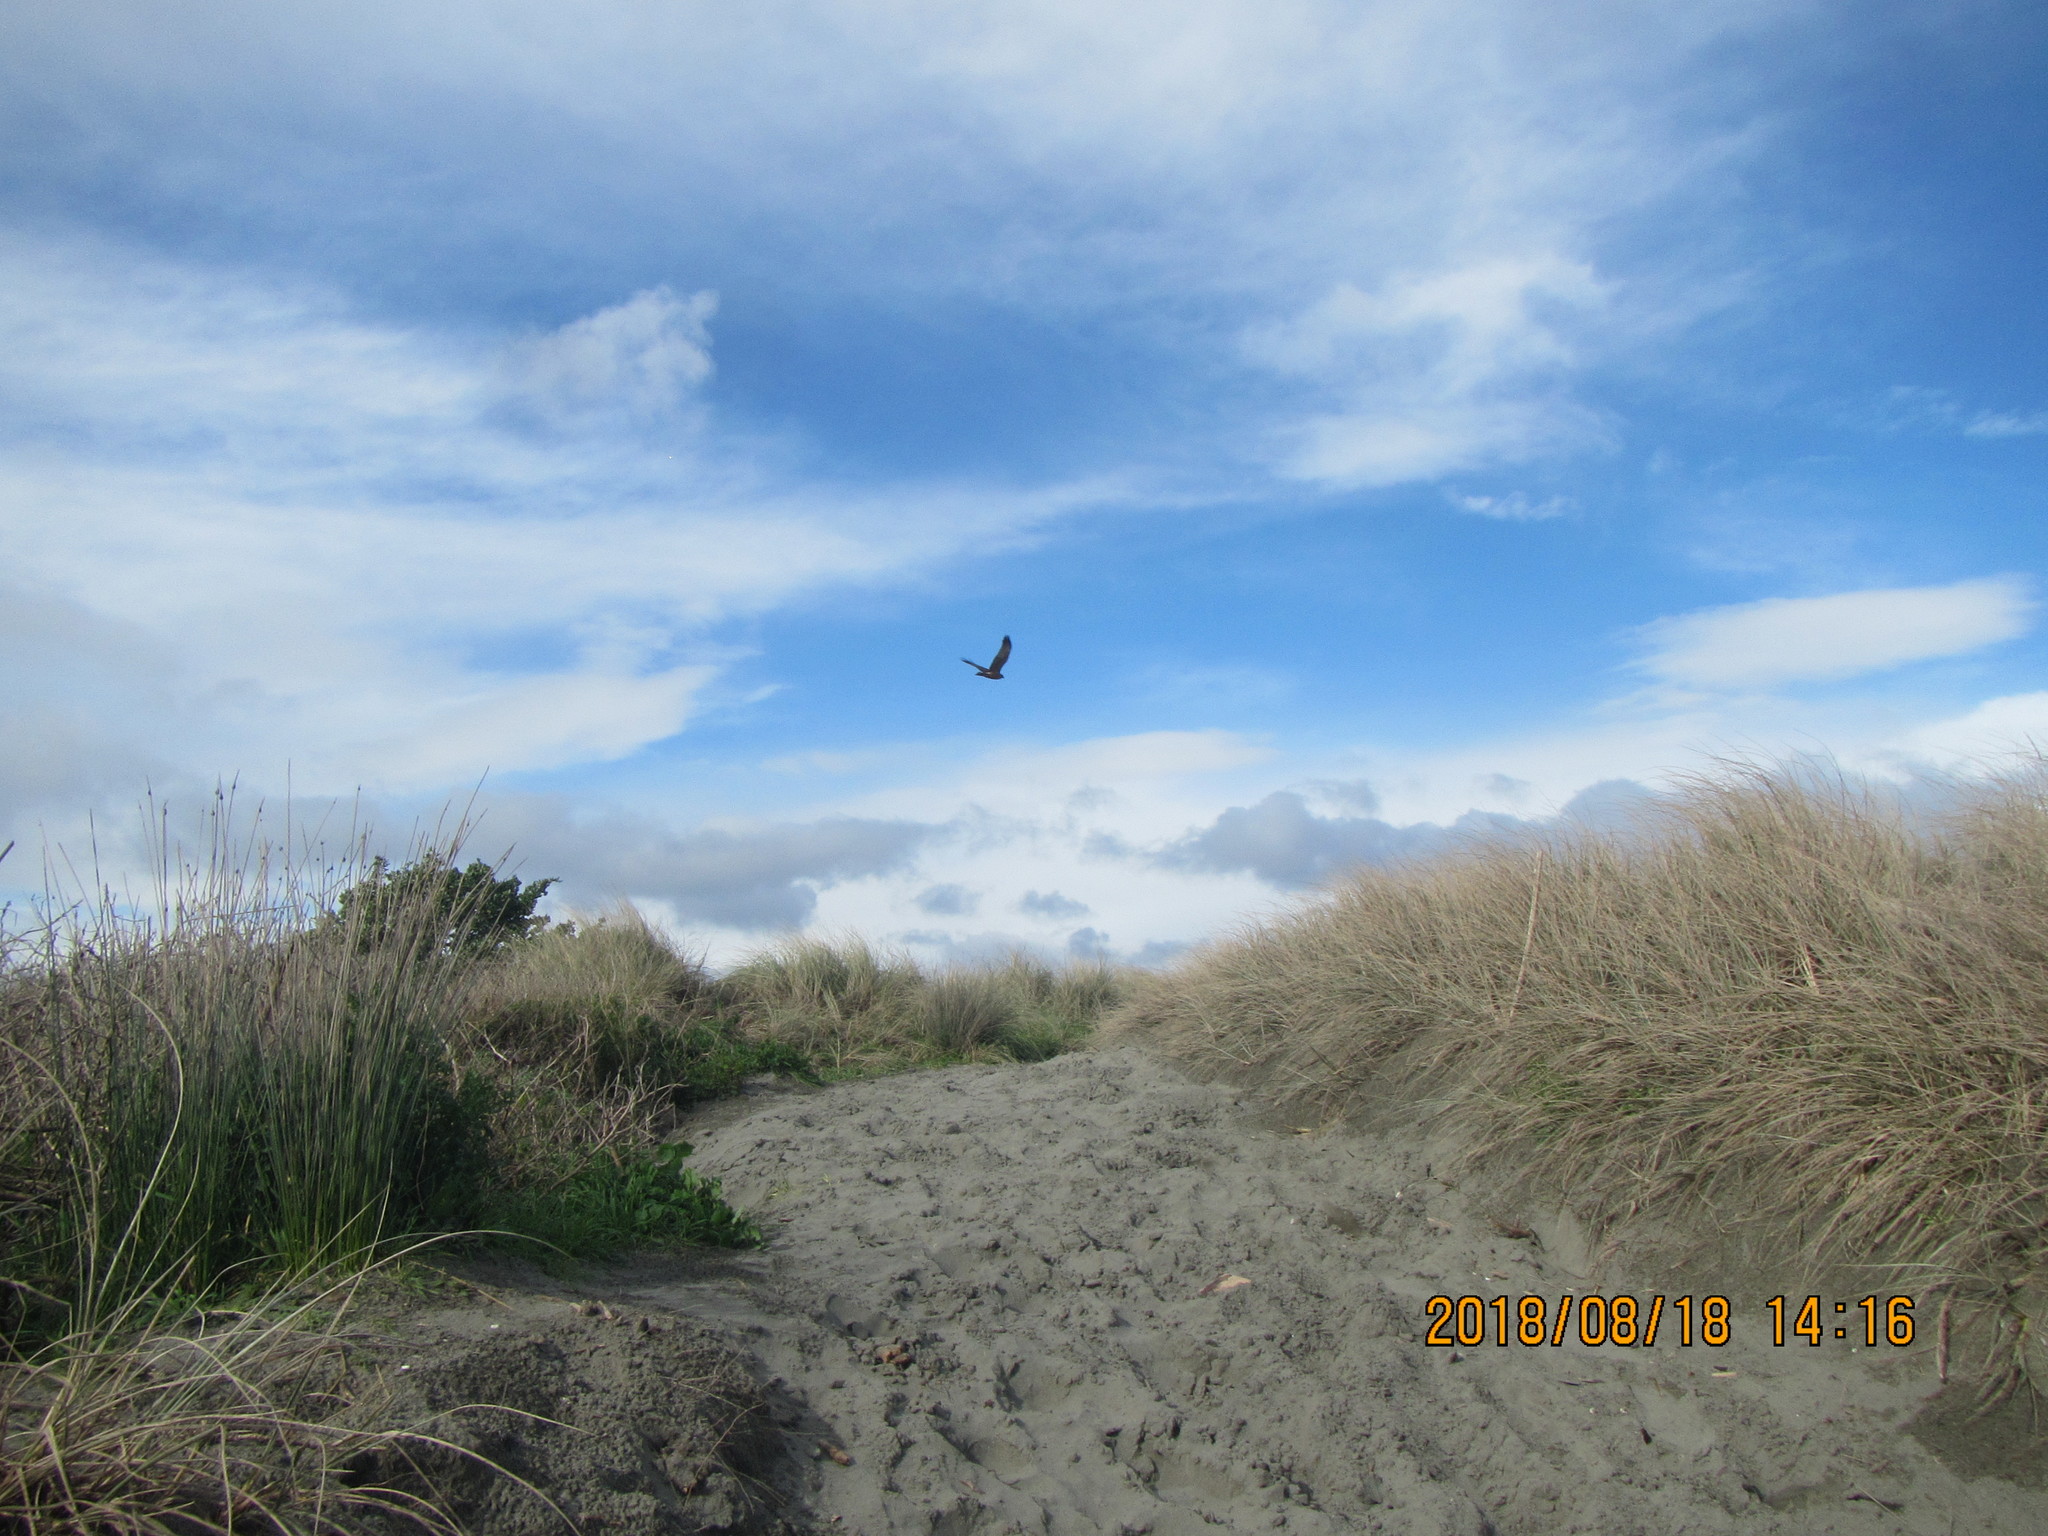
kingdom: Animalia
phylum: Chordata
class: Aves
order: Accipitriformes
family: Accipitridae
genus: Circus
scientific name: Circus approximans
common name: Swamp harrier
